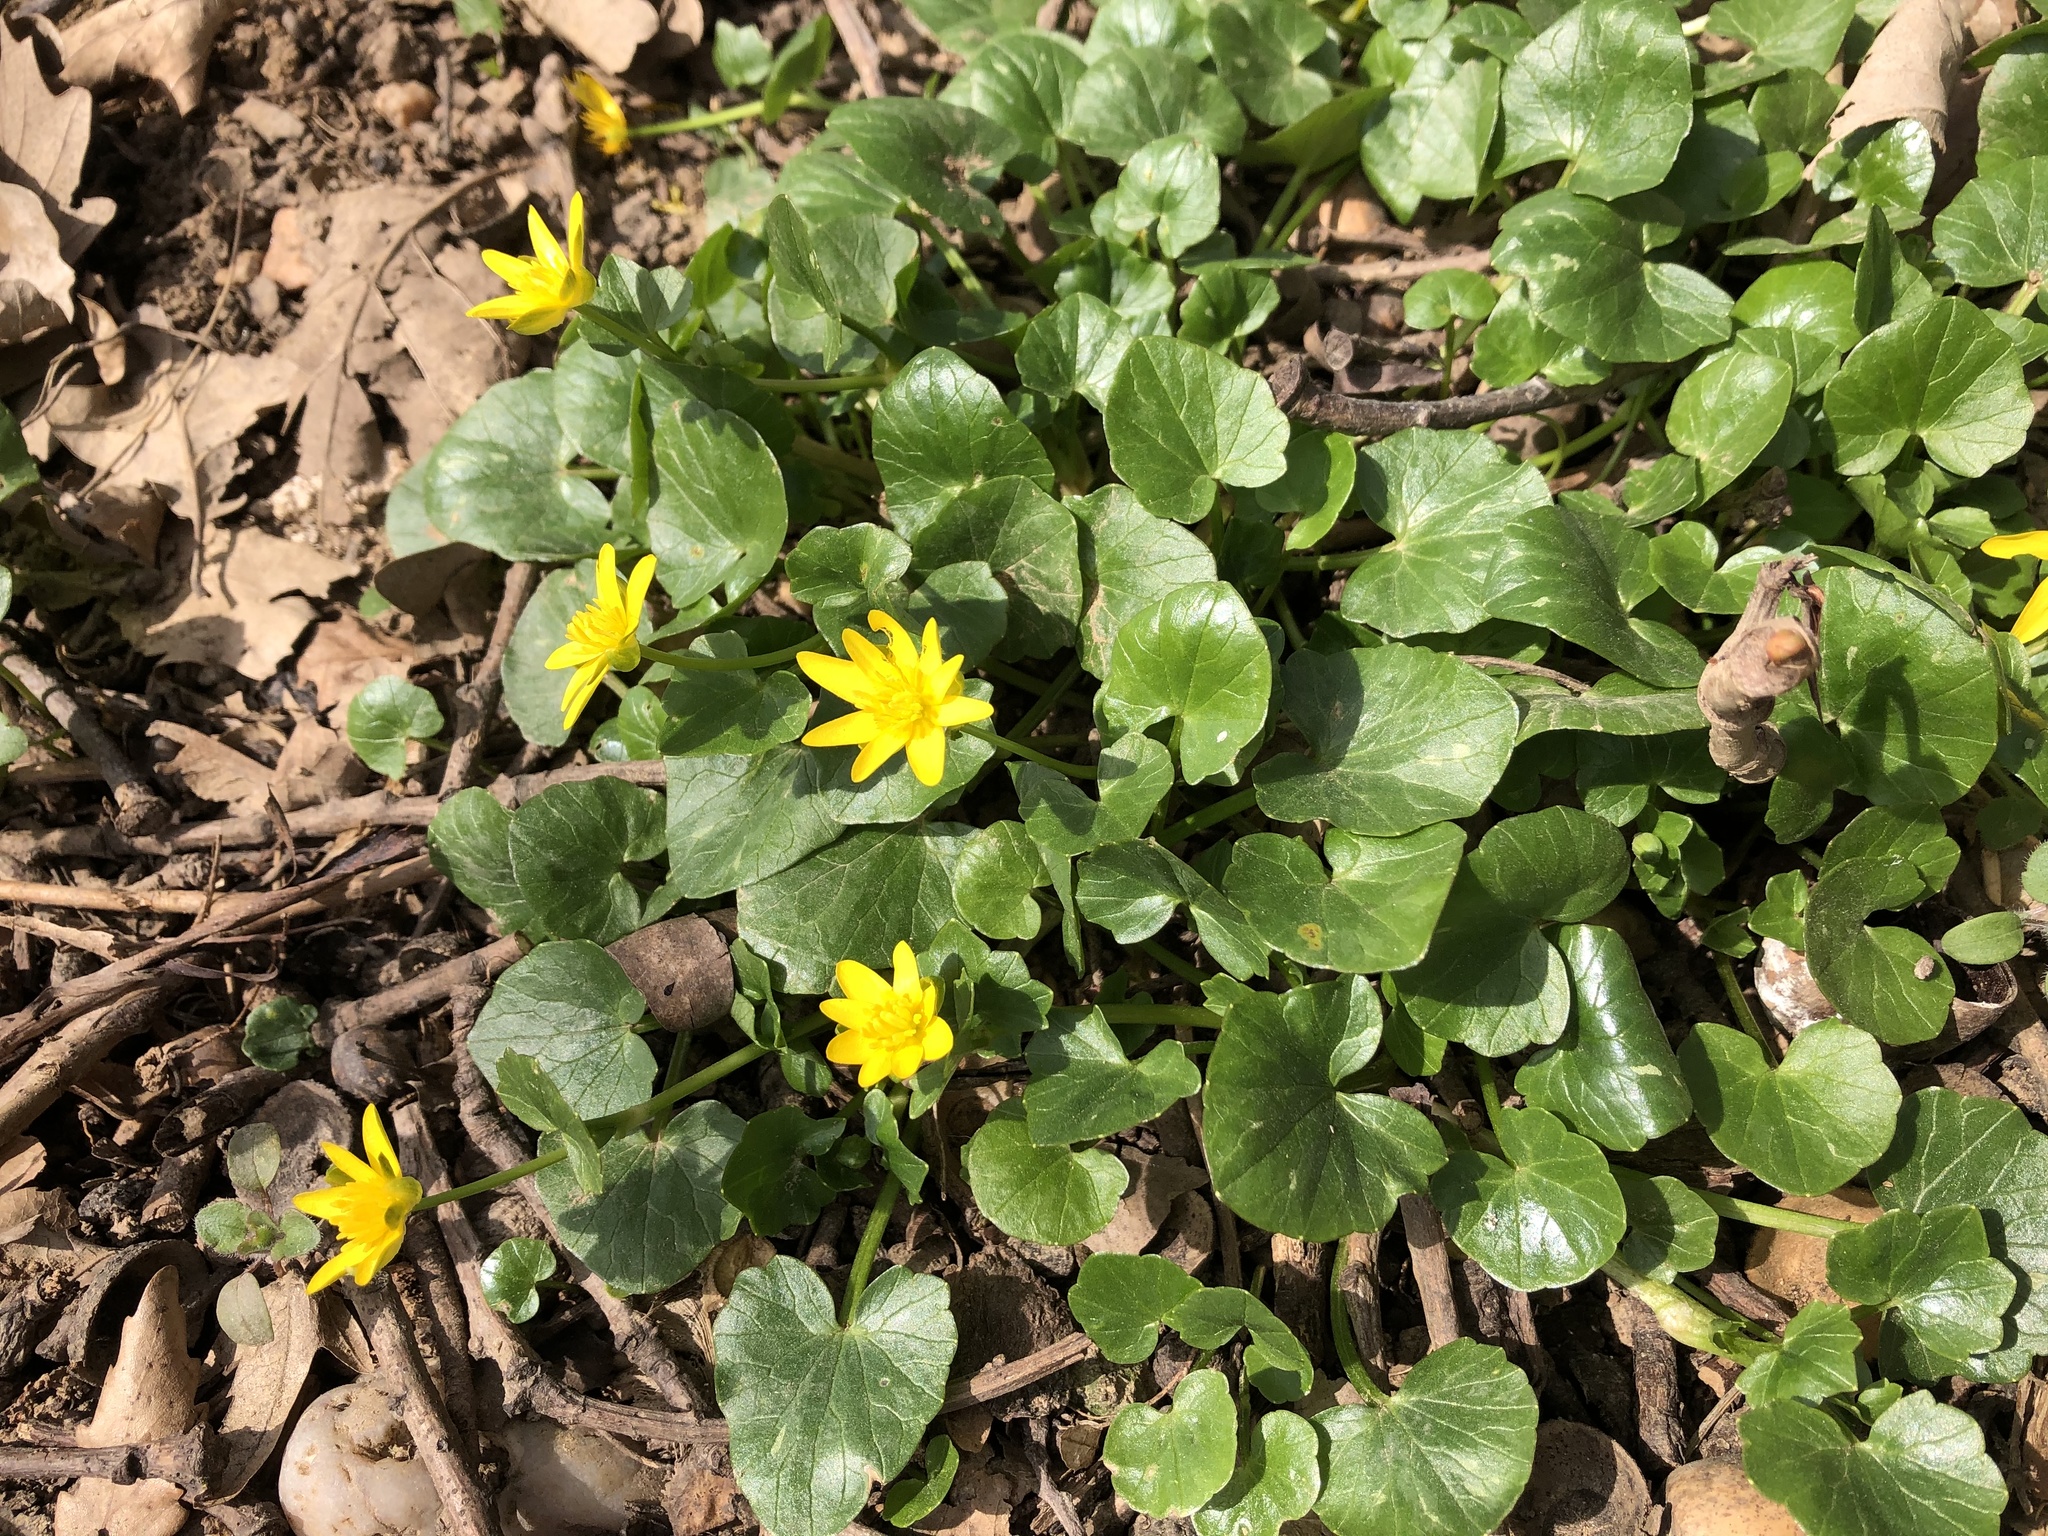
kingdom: Plantae
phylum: Tracheophyta
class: Magnoliopsida
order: Ranunculales
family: Ranunculaceae
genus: Ficaria
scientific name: Ficaria verna
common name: Lesser celandine
